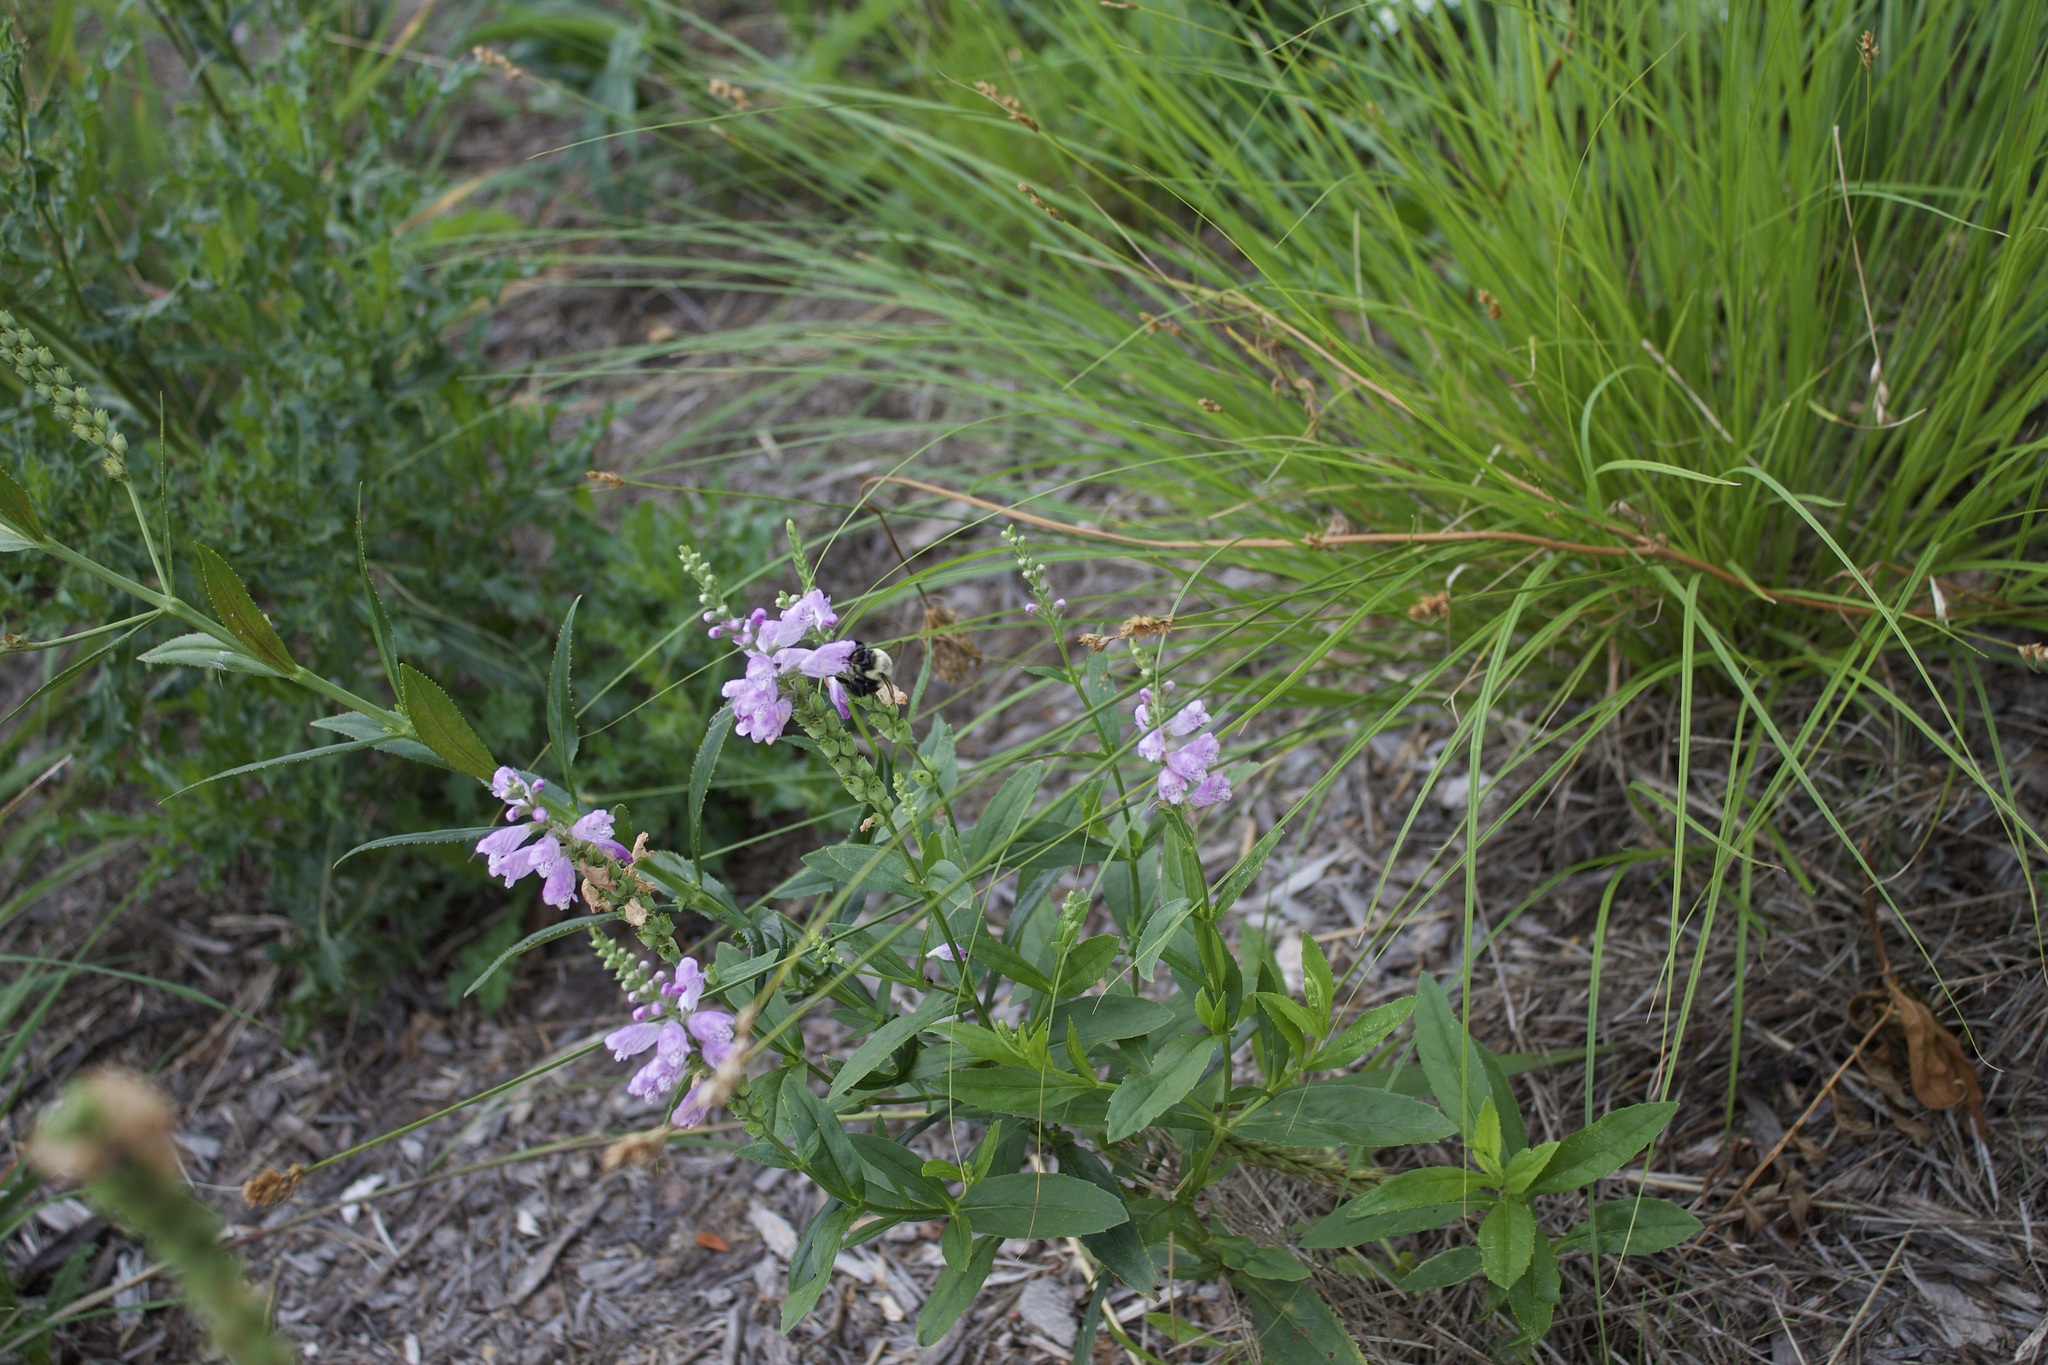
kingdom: Animalia
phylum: Arthropoda
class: Insecta
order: Hymenoptera
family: Apidae
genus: Bombus
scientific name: Bombus impatiens
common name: Common eastern bumble bee
